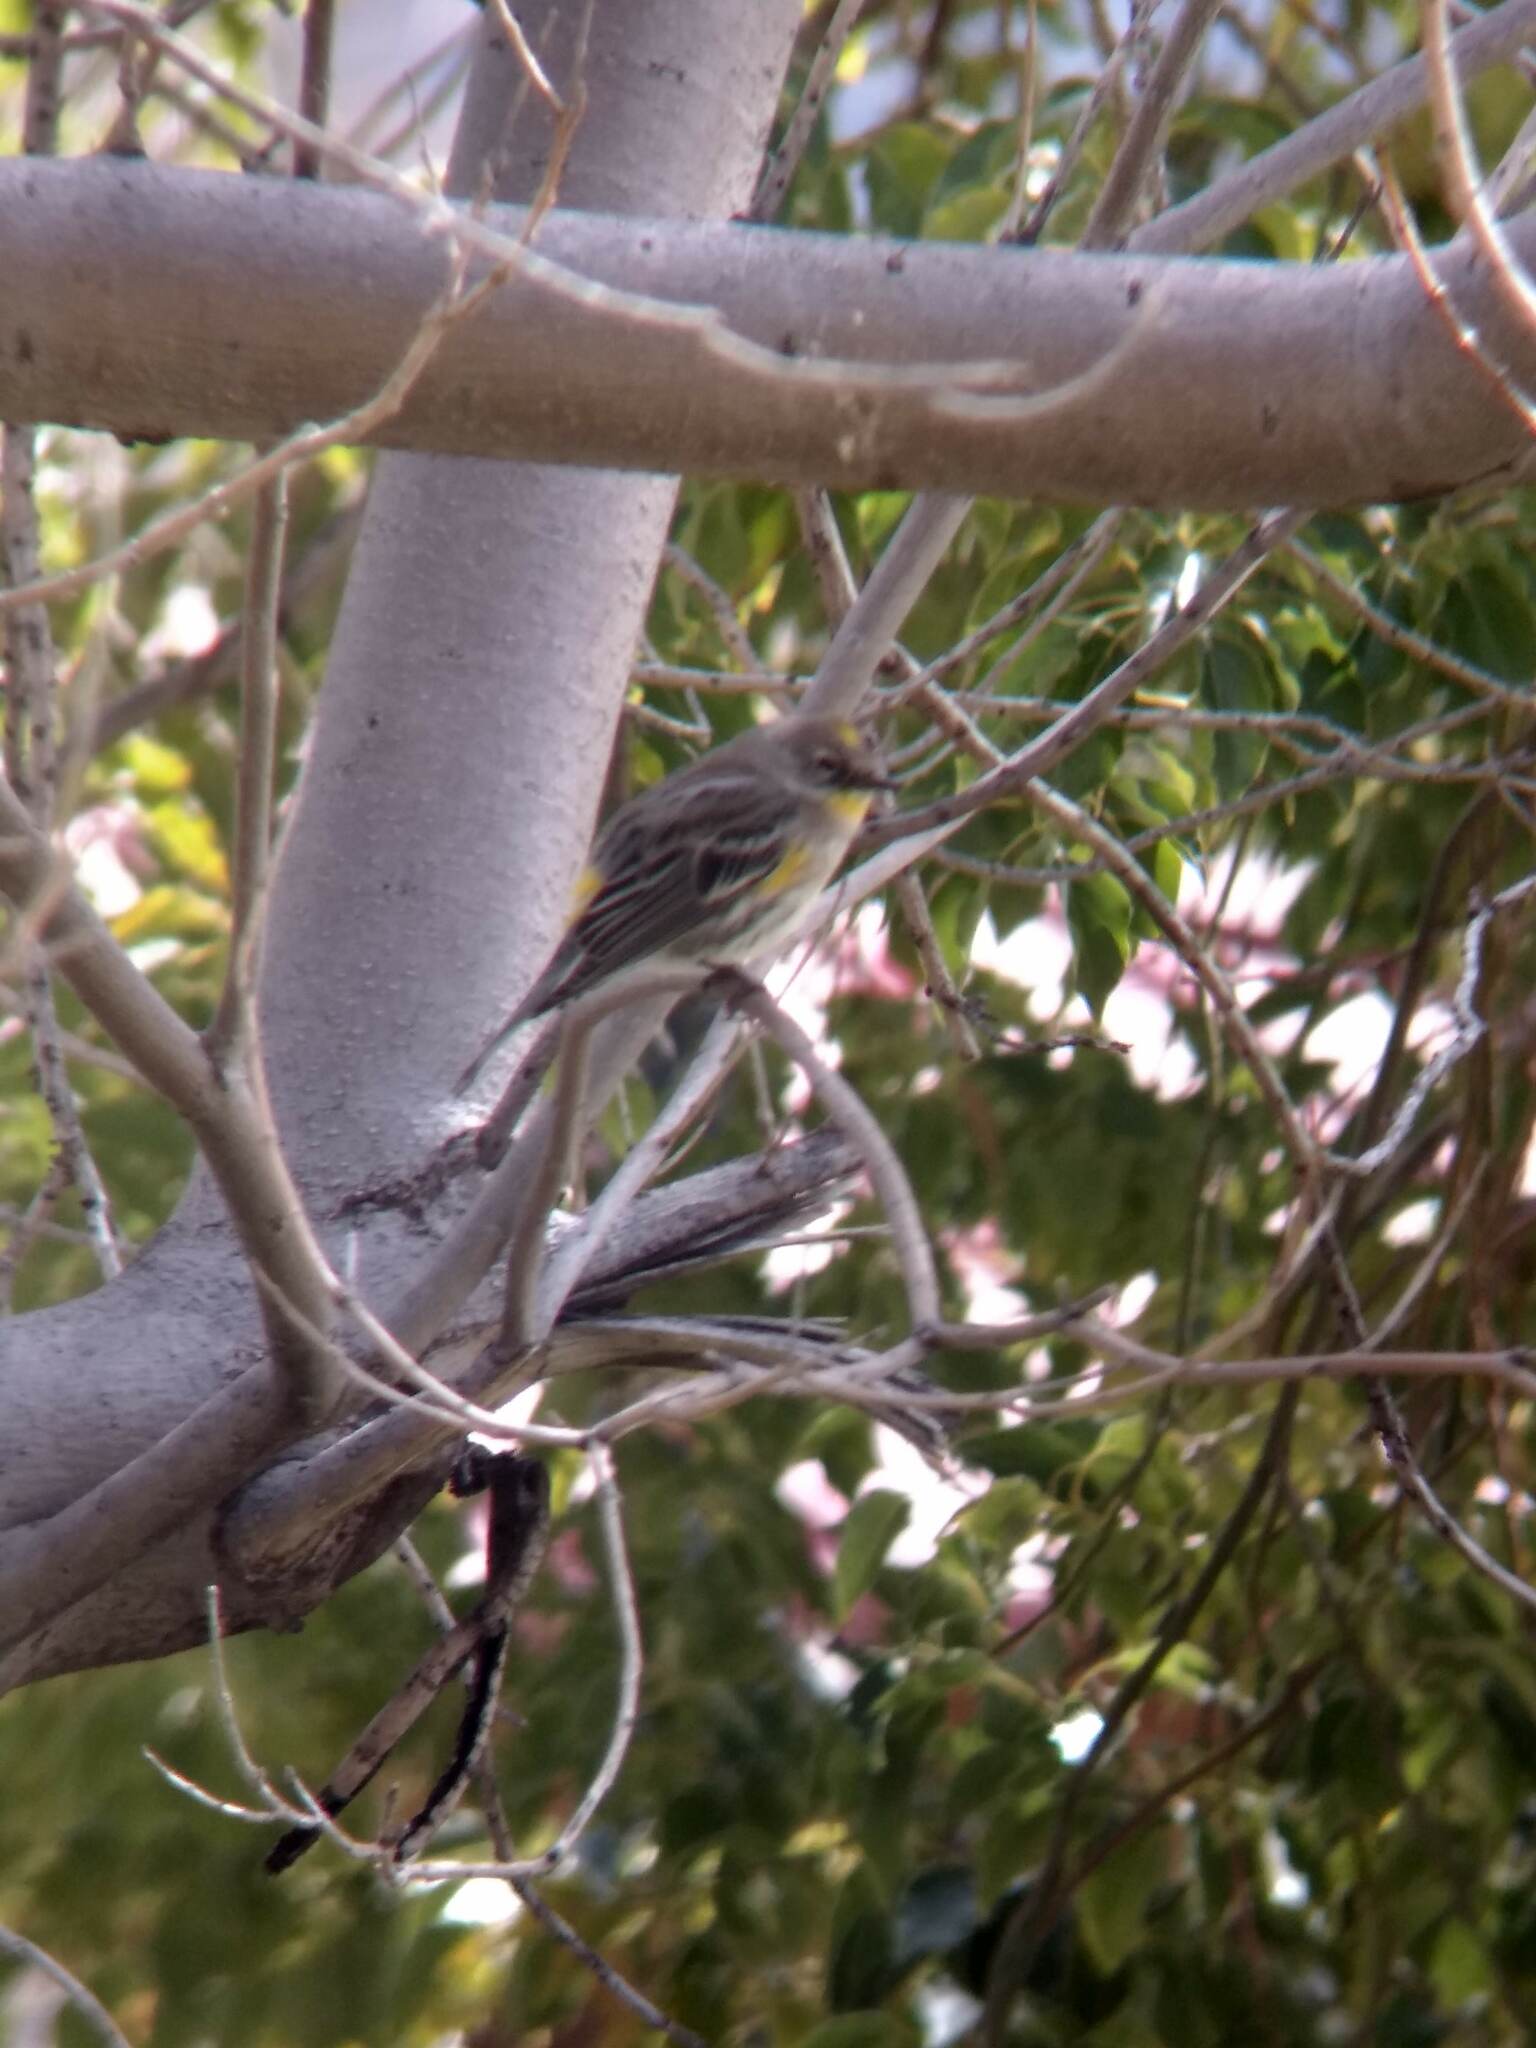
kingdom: Animalia
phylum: Chordata
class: Aves
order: Passeriformes
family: Parulidae
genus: Setophaga
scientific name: Setophaga coronata
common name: Myrtle warbler
